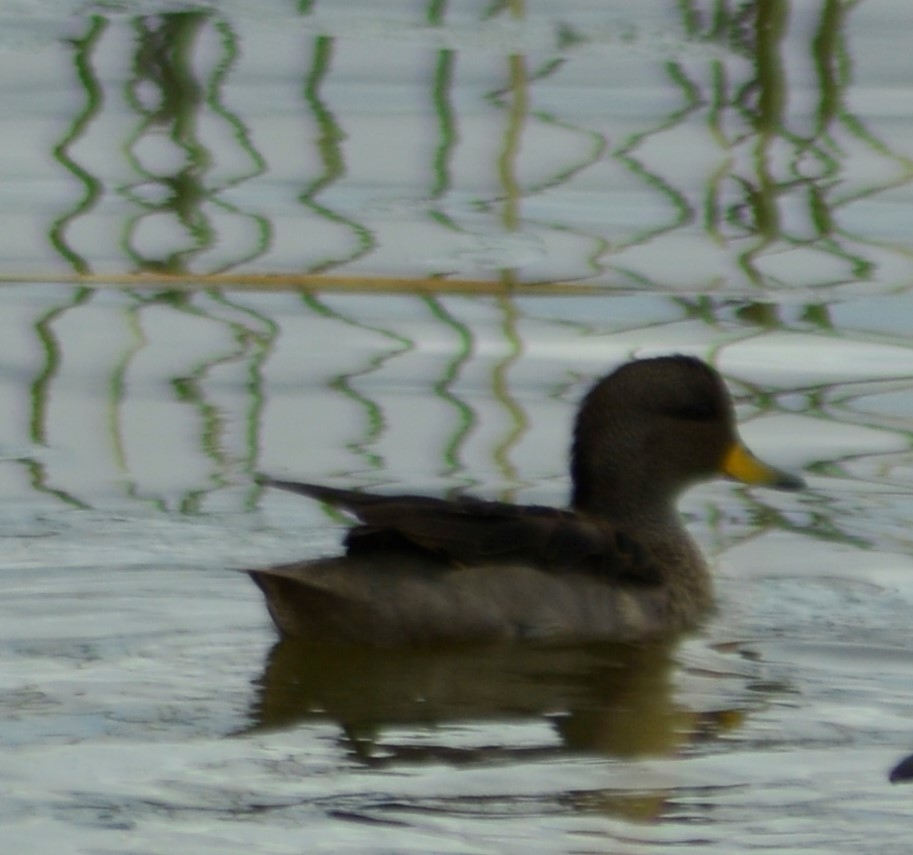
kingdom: Animalia
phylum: Chordata
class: Aves
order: Anseriformes
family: Anatidae
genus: Anas
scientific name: Anas flavirostris
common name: Yellow-billed teal
